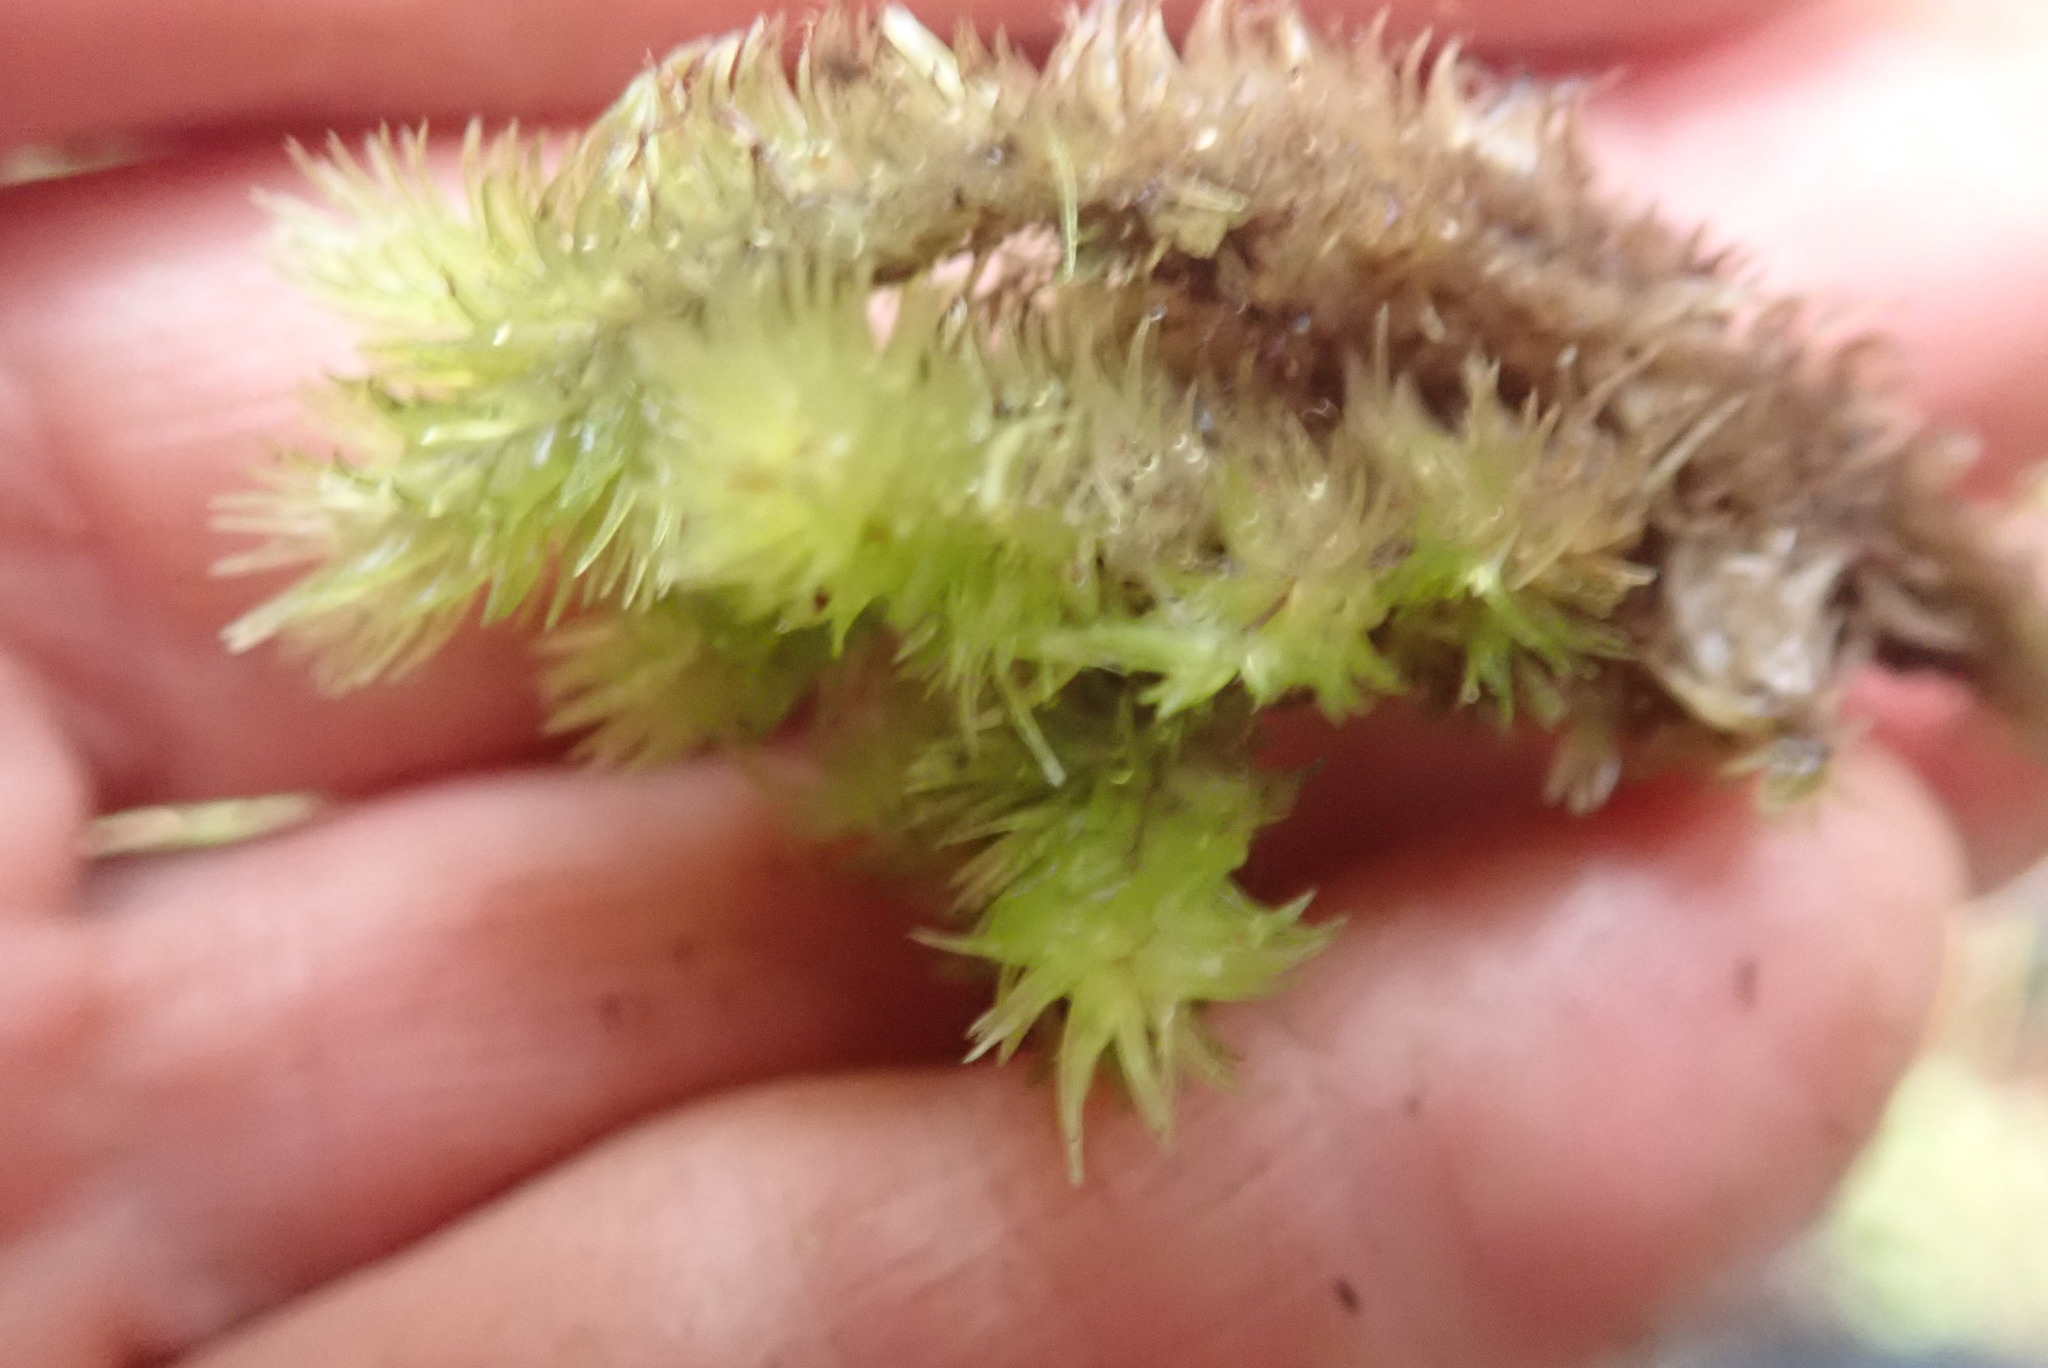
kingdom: Plantae
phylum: Bryophyta
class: Bryopsida
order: Dicranales
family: Leucobryaceae
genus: Leucobryum
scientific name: Leucobryum javense
